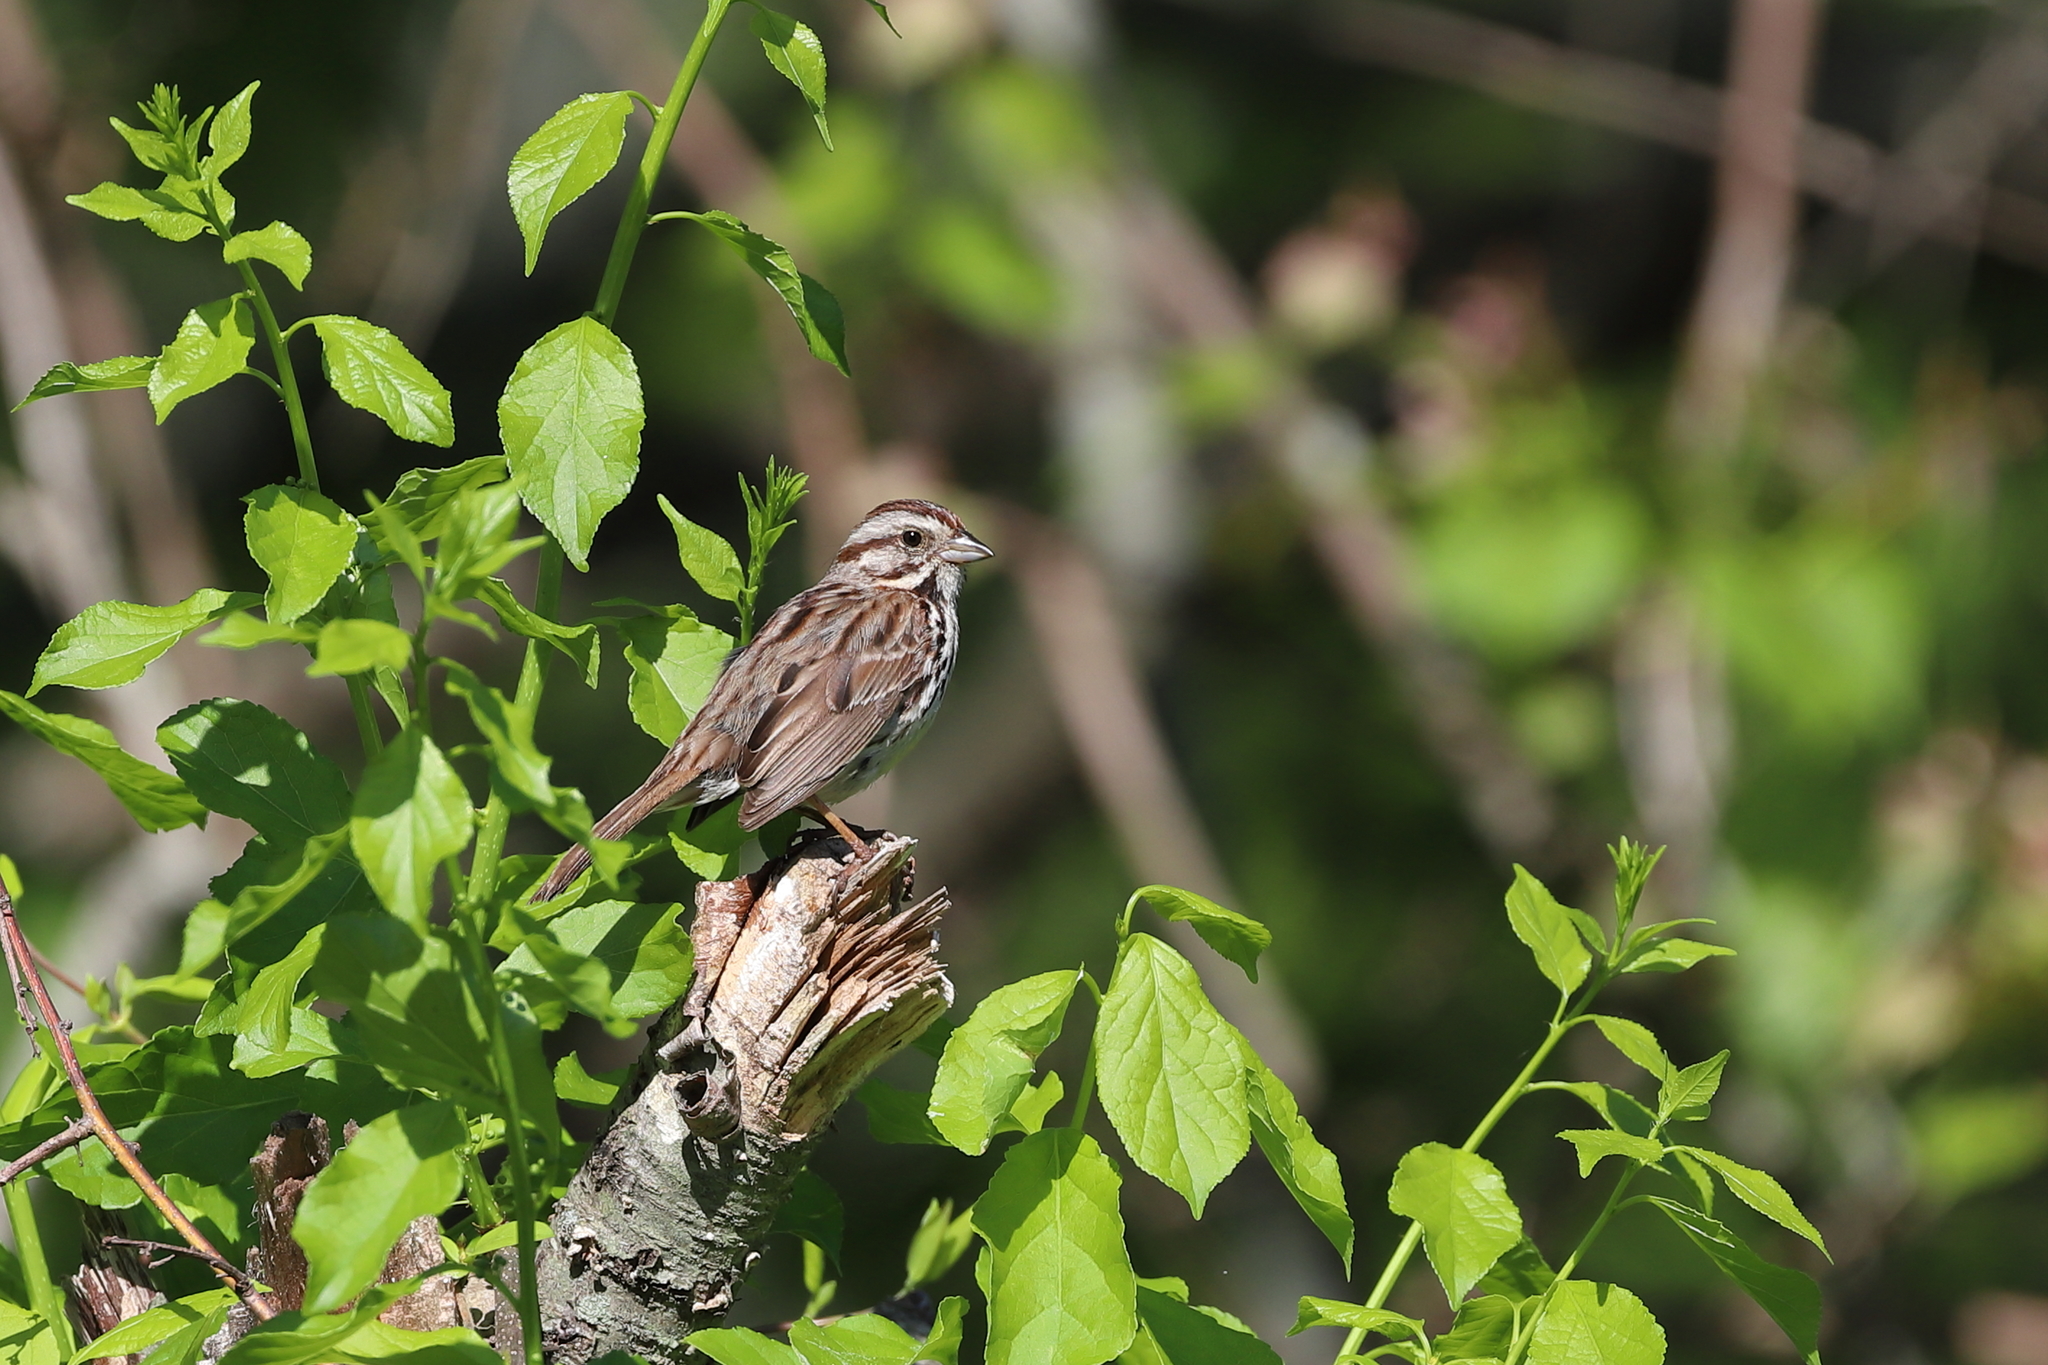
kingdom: Animalia
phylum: Chordata
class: Aves
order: Passeriformes
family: Passerellidae
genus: Melospiza
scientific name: Melospiza melodia
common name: Song sparrow
